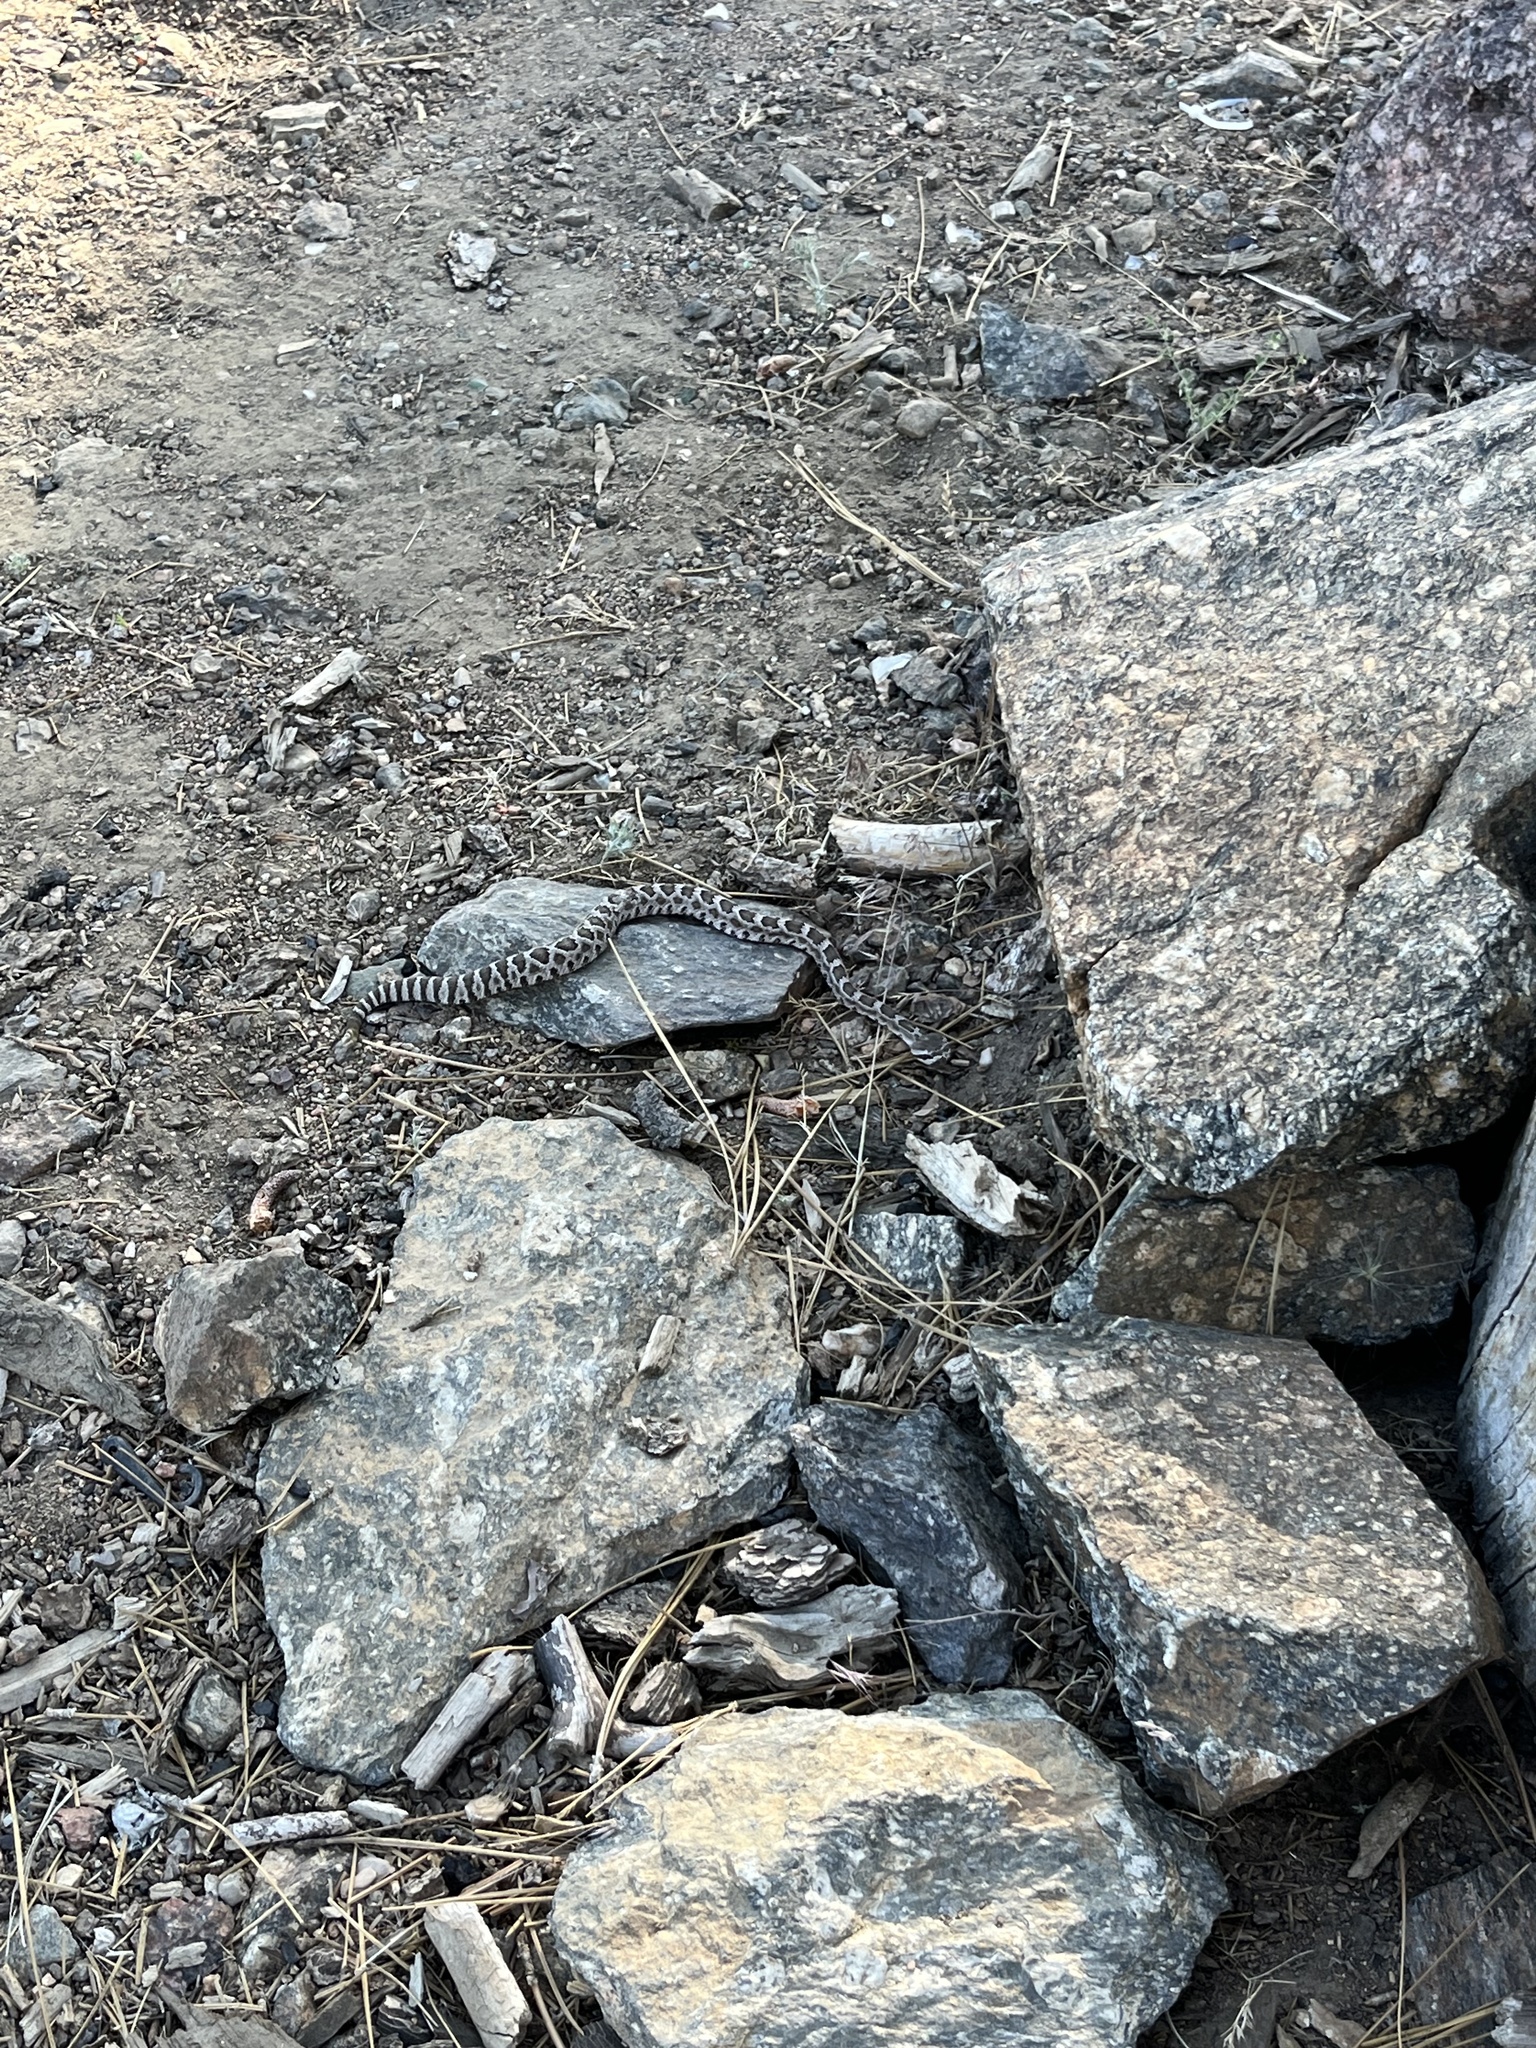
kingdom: Animalia
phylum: Chordata
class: Squamata
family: Viperidae
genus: Crotalus
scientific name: Crotalus oreganus
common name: Abyssus
